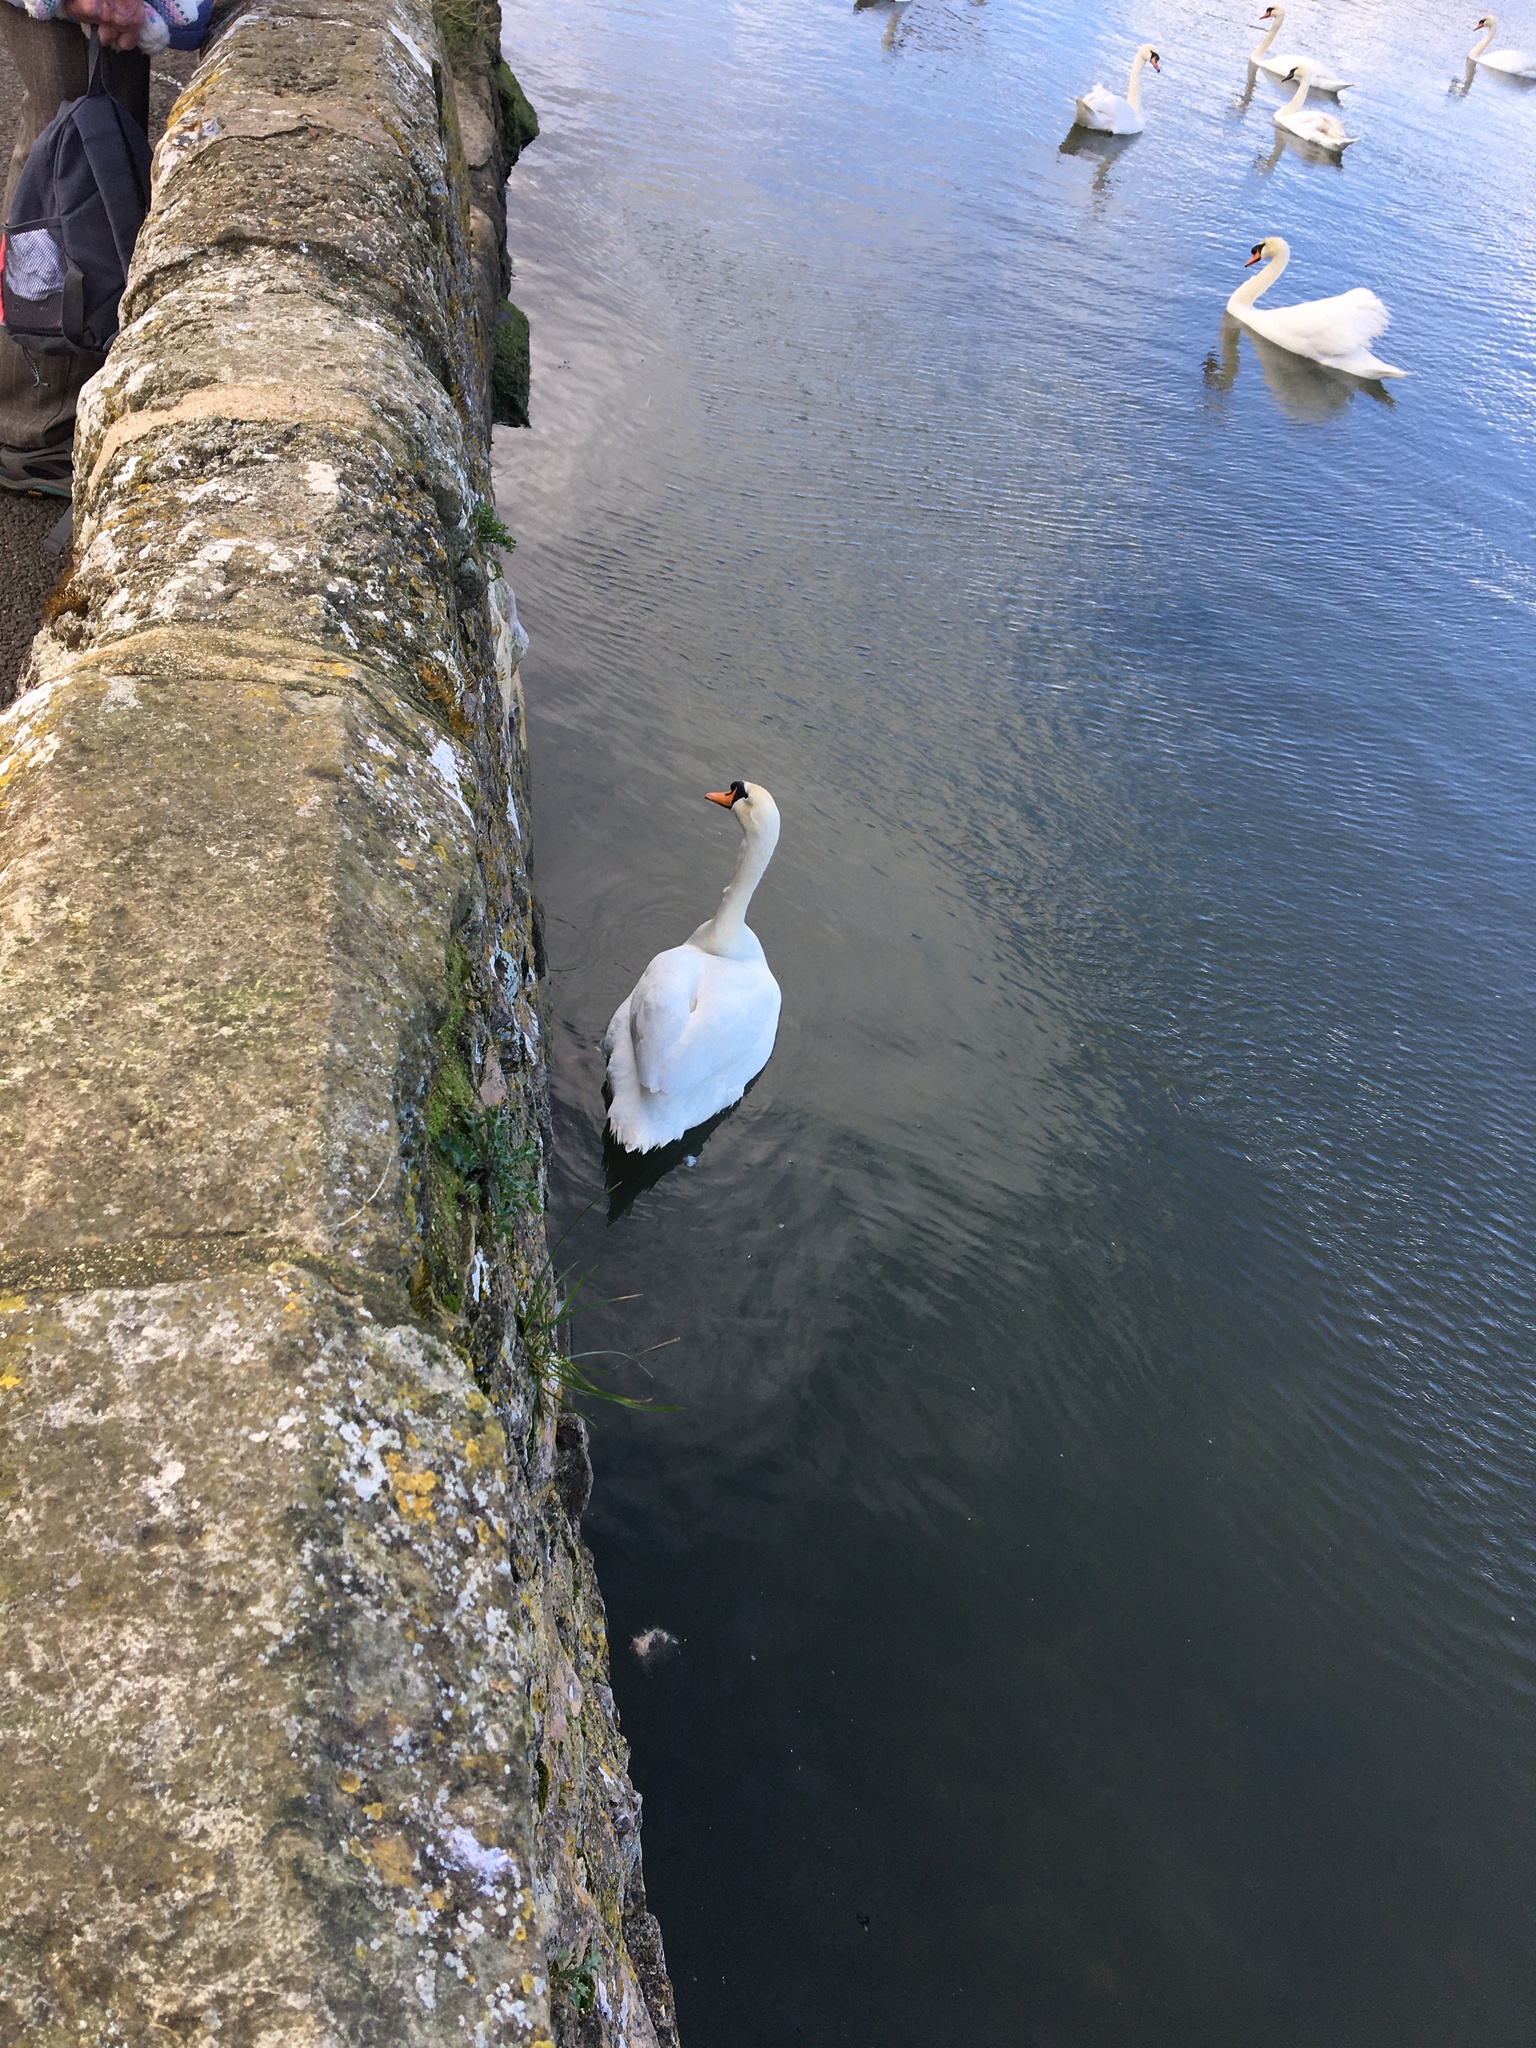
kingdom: Animalia
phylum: Chordata
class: Aves
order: Anseriformes
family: Anatidae
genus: Cygnus
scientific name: Cygnus olor
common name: Mute swan
